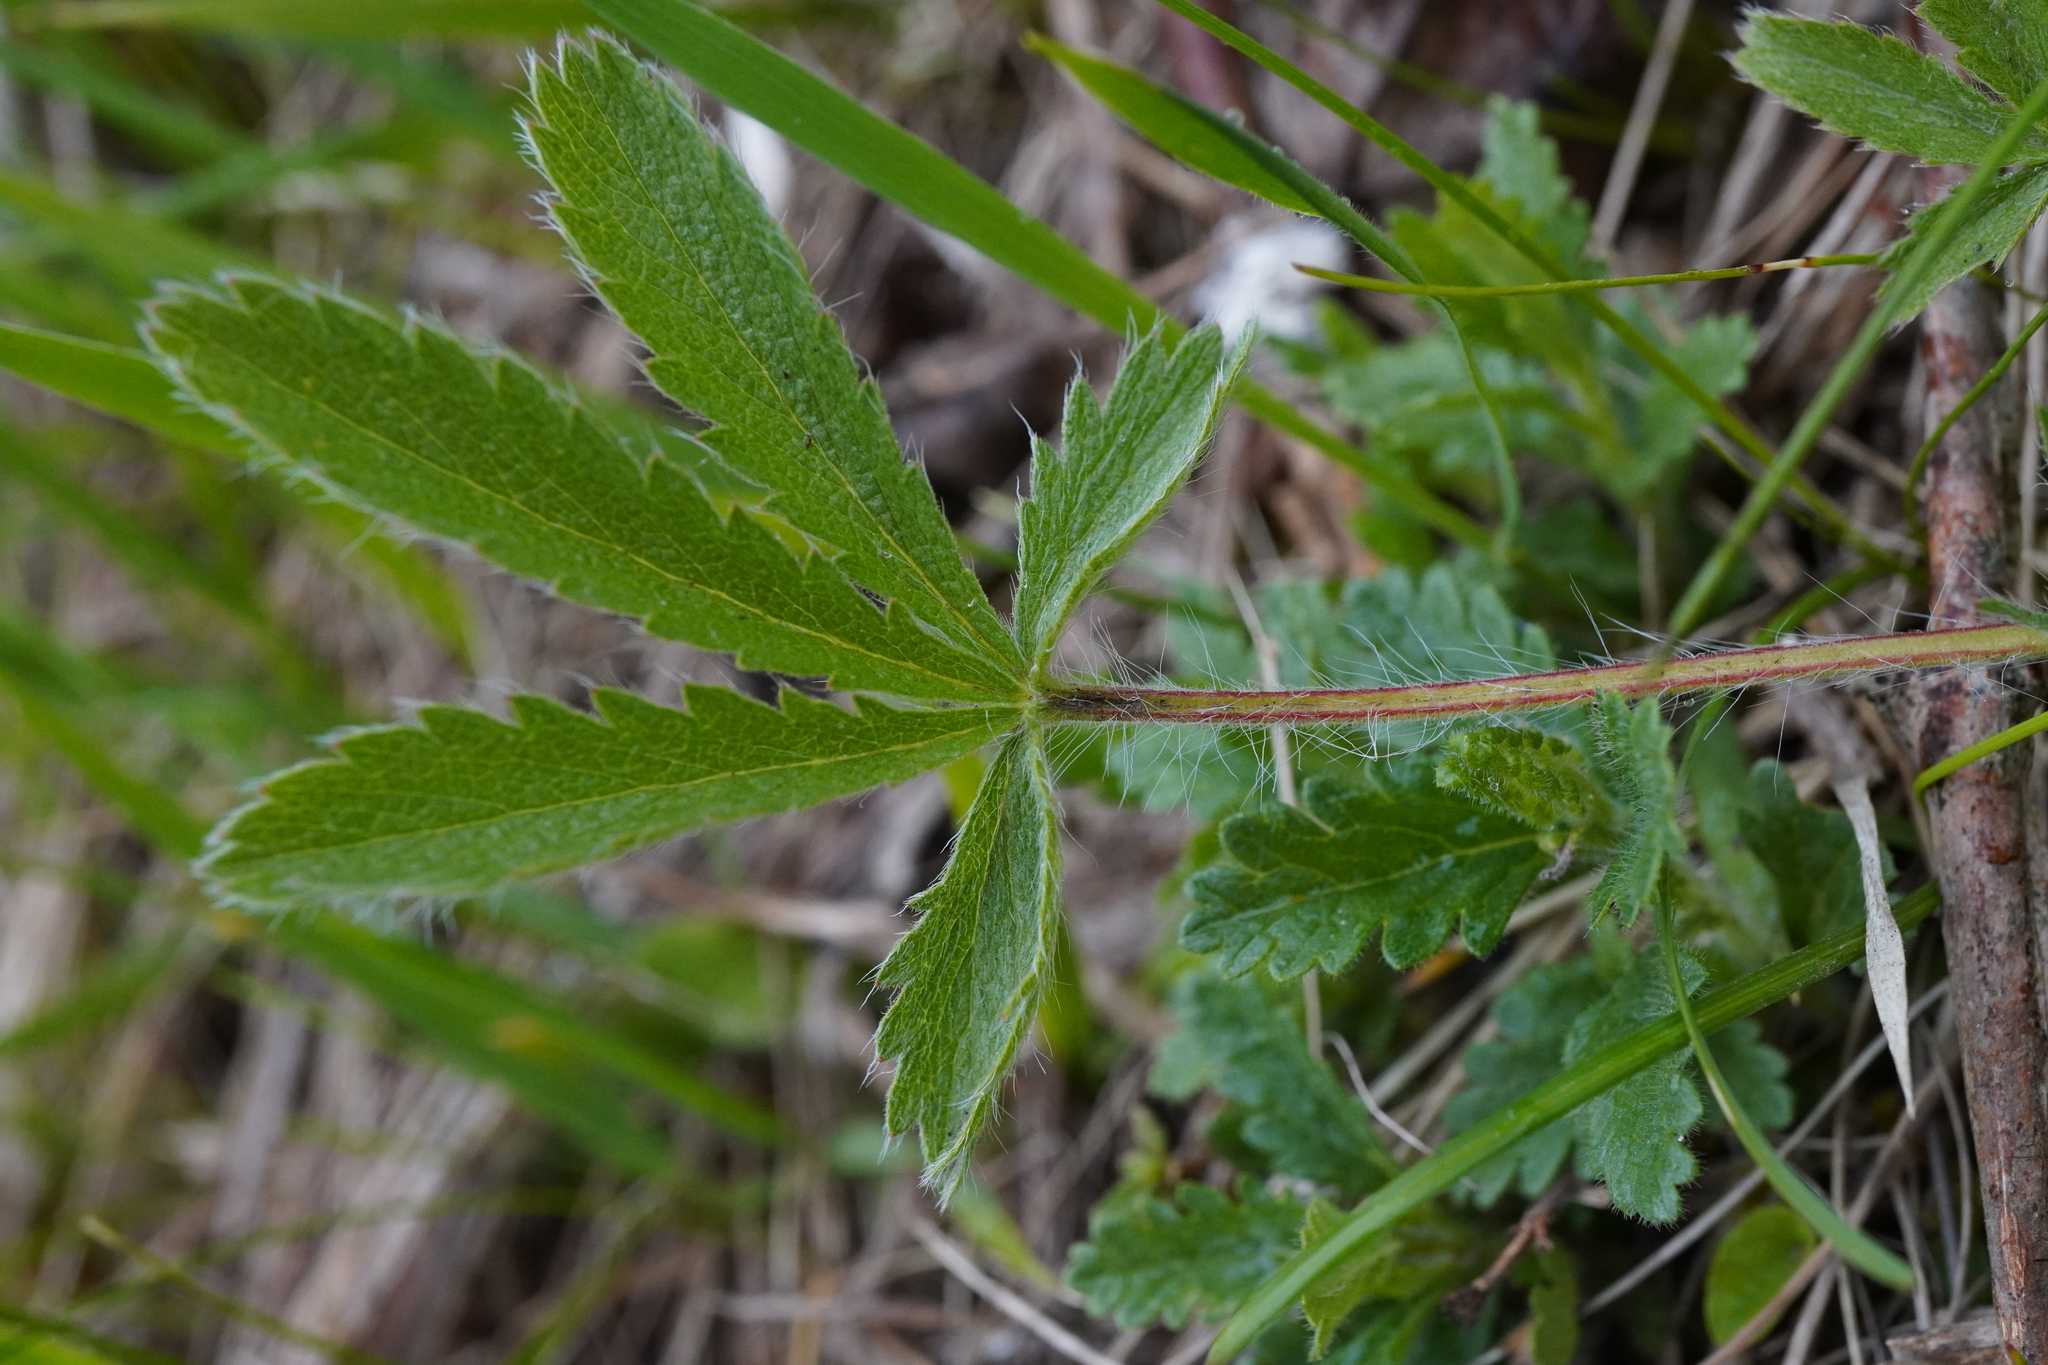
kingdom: Plantae
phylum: Tracheophyta
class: Magnoliopsida
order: Rosales
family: Rosaceae
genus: Potentilla
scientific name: Potentilla recta
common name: Sulphur cinquefoil
